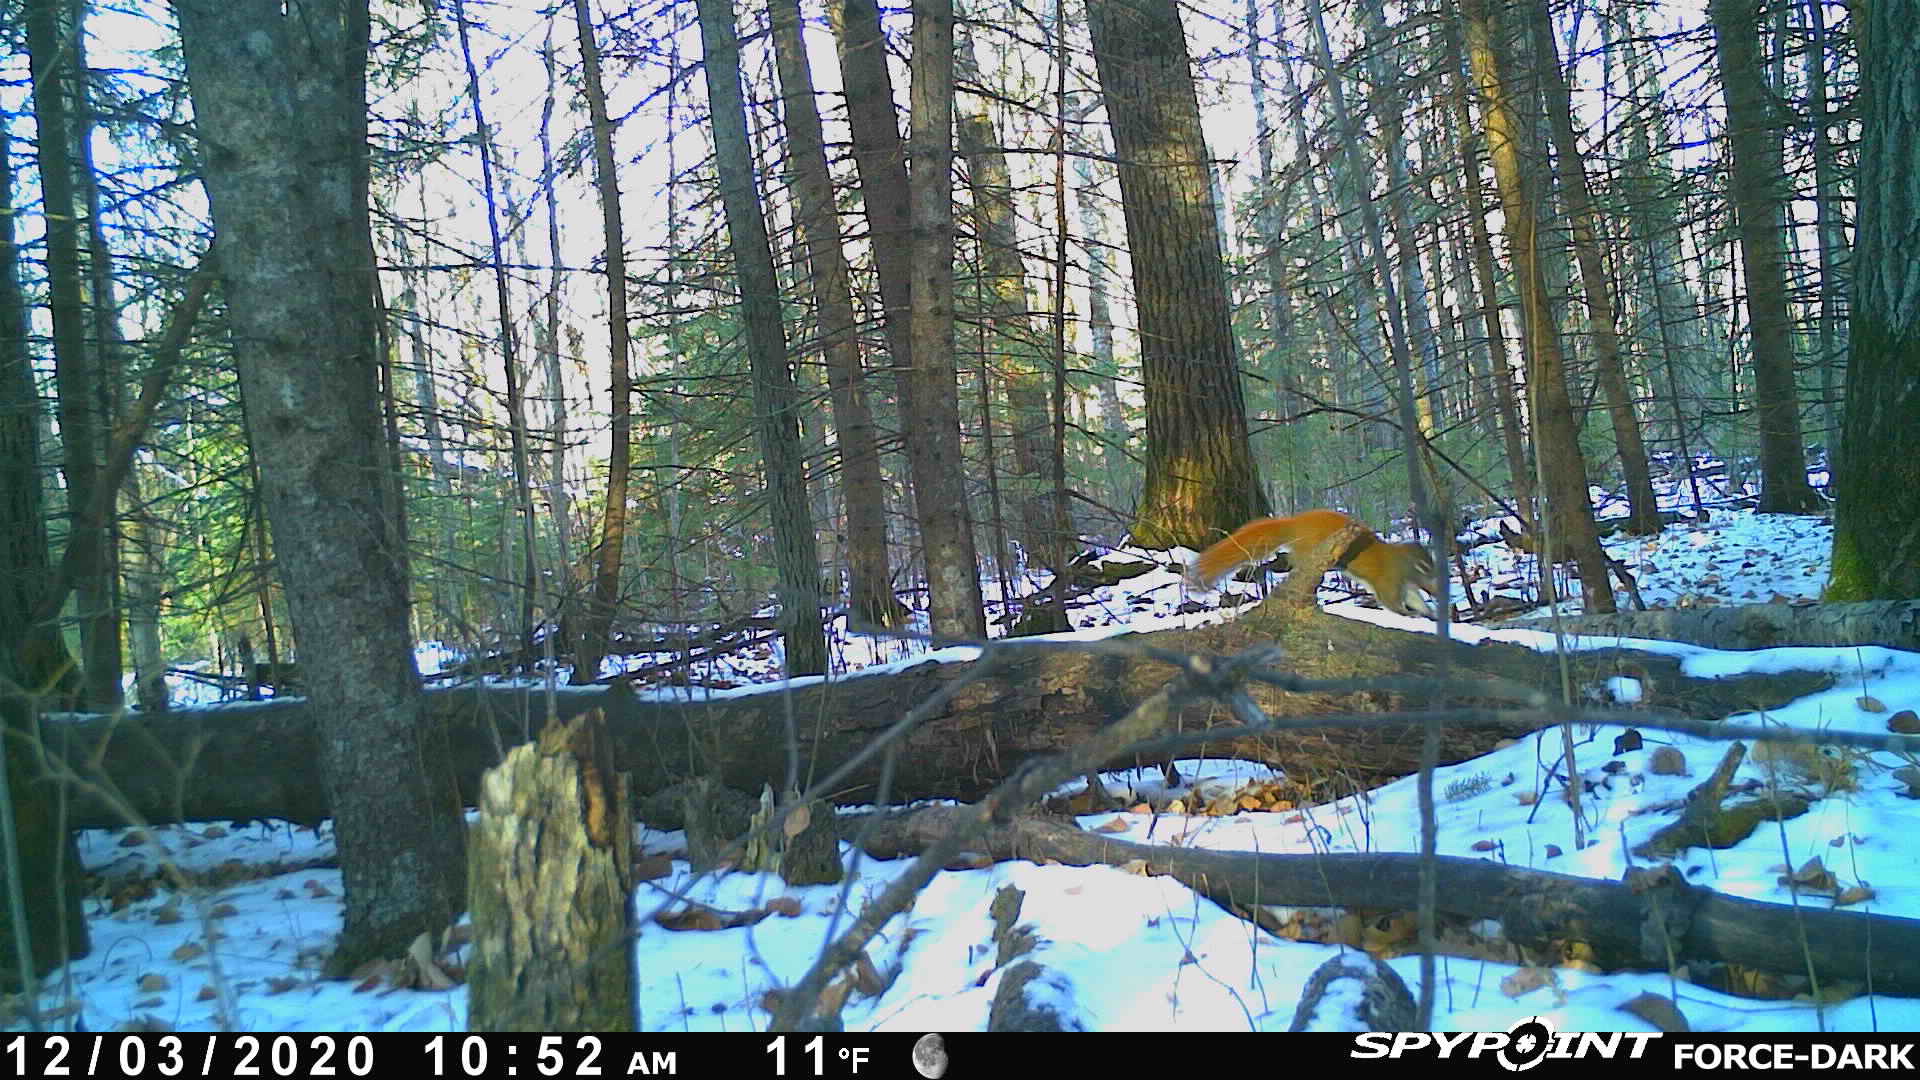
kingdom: Animalia
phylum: Chordata
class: Mammalia
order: Rodentia
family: Sciuridae
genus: Tamiasciurus
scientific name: Tamiasciurus hudsonicus
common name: Red squirrel
